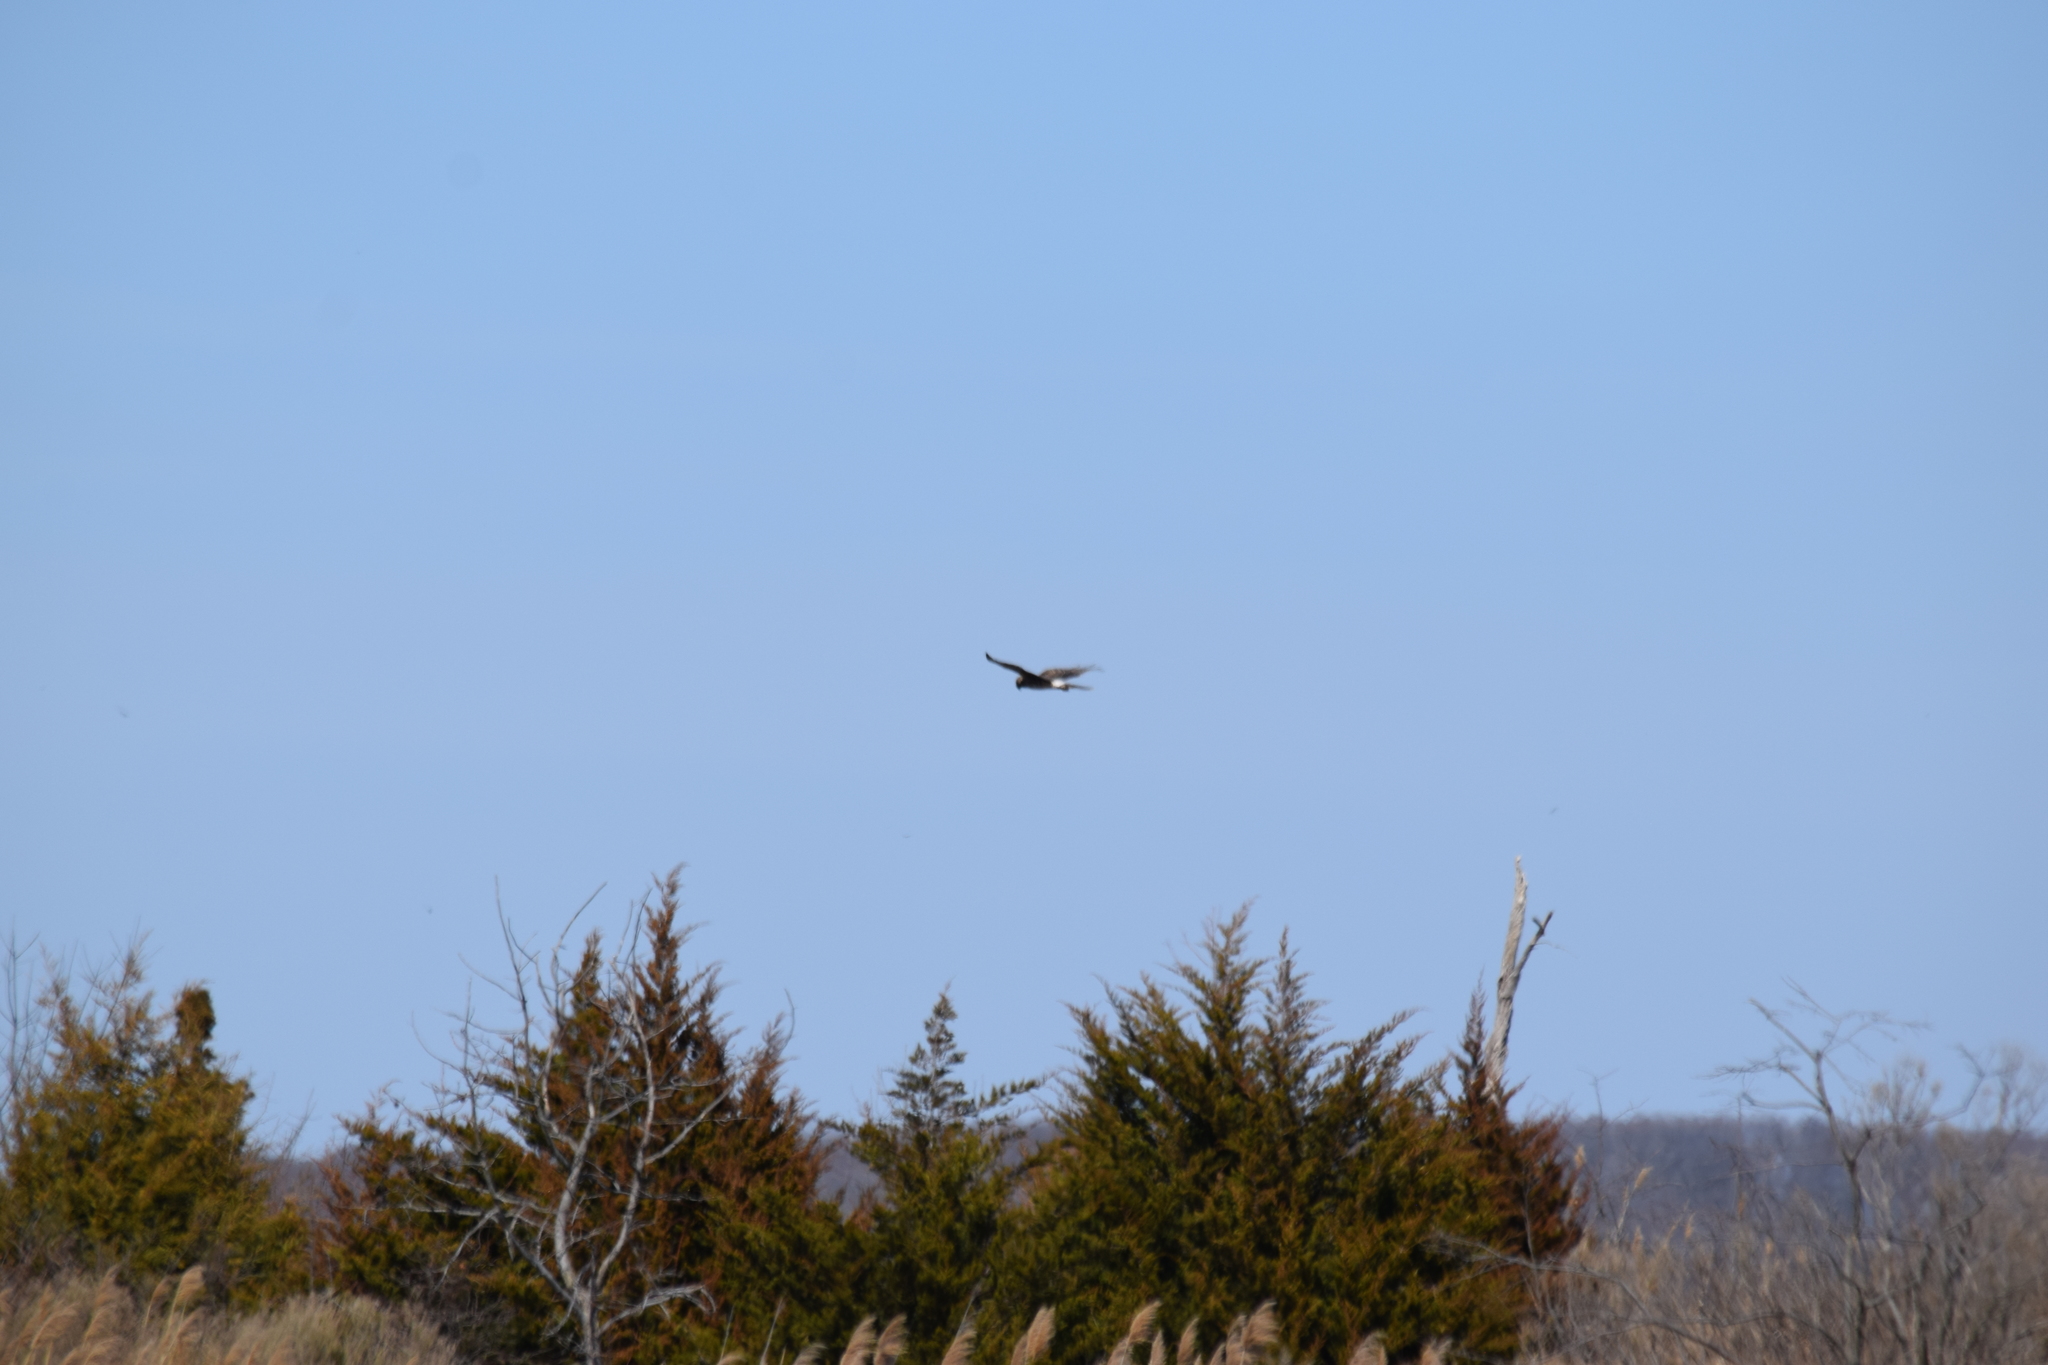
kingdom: Animalia
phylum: Chordata
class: Aves
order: Accipitriformes
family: Accipitridae
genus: Circus
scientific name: Circus cyaneus
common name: Hen harrier
